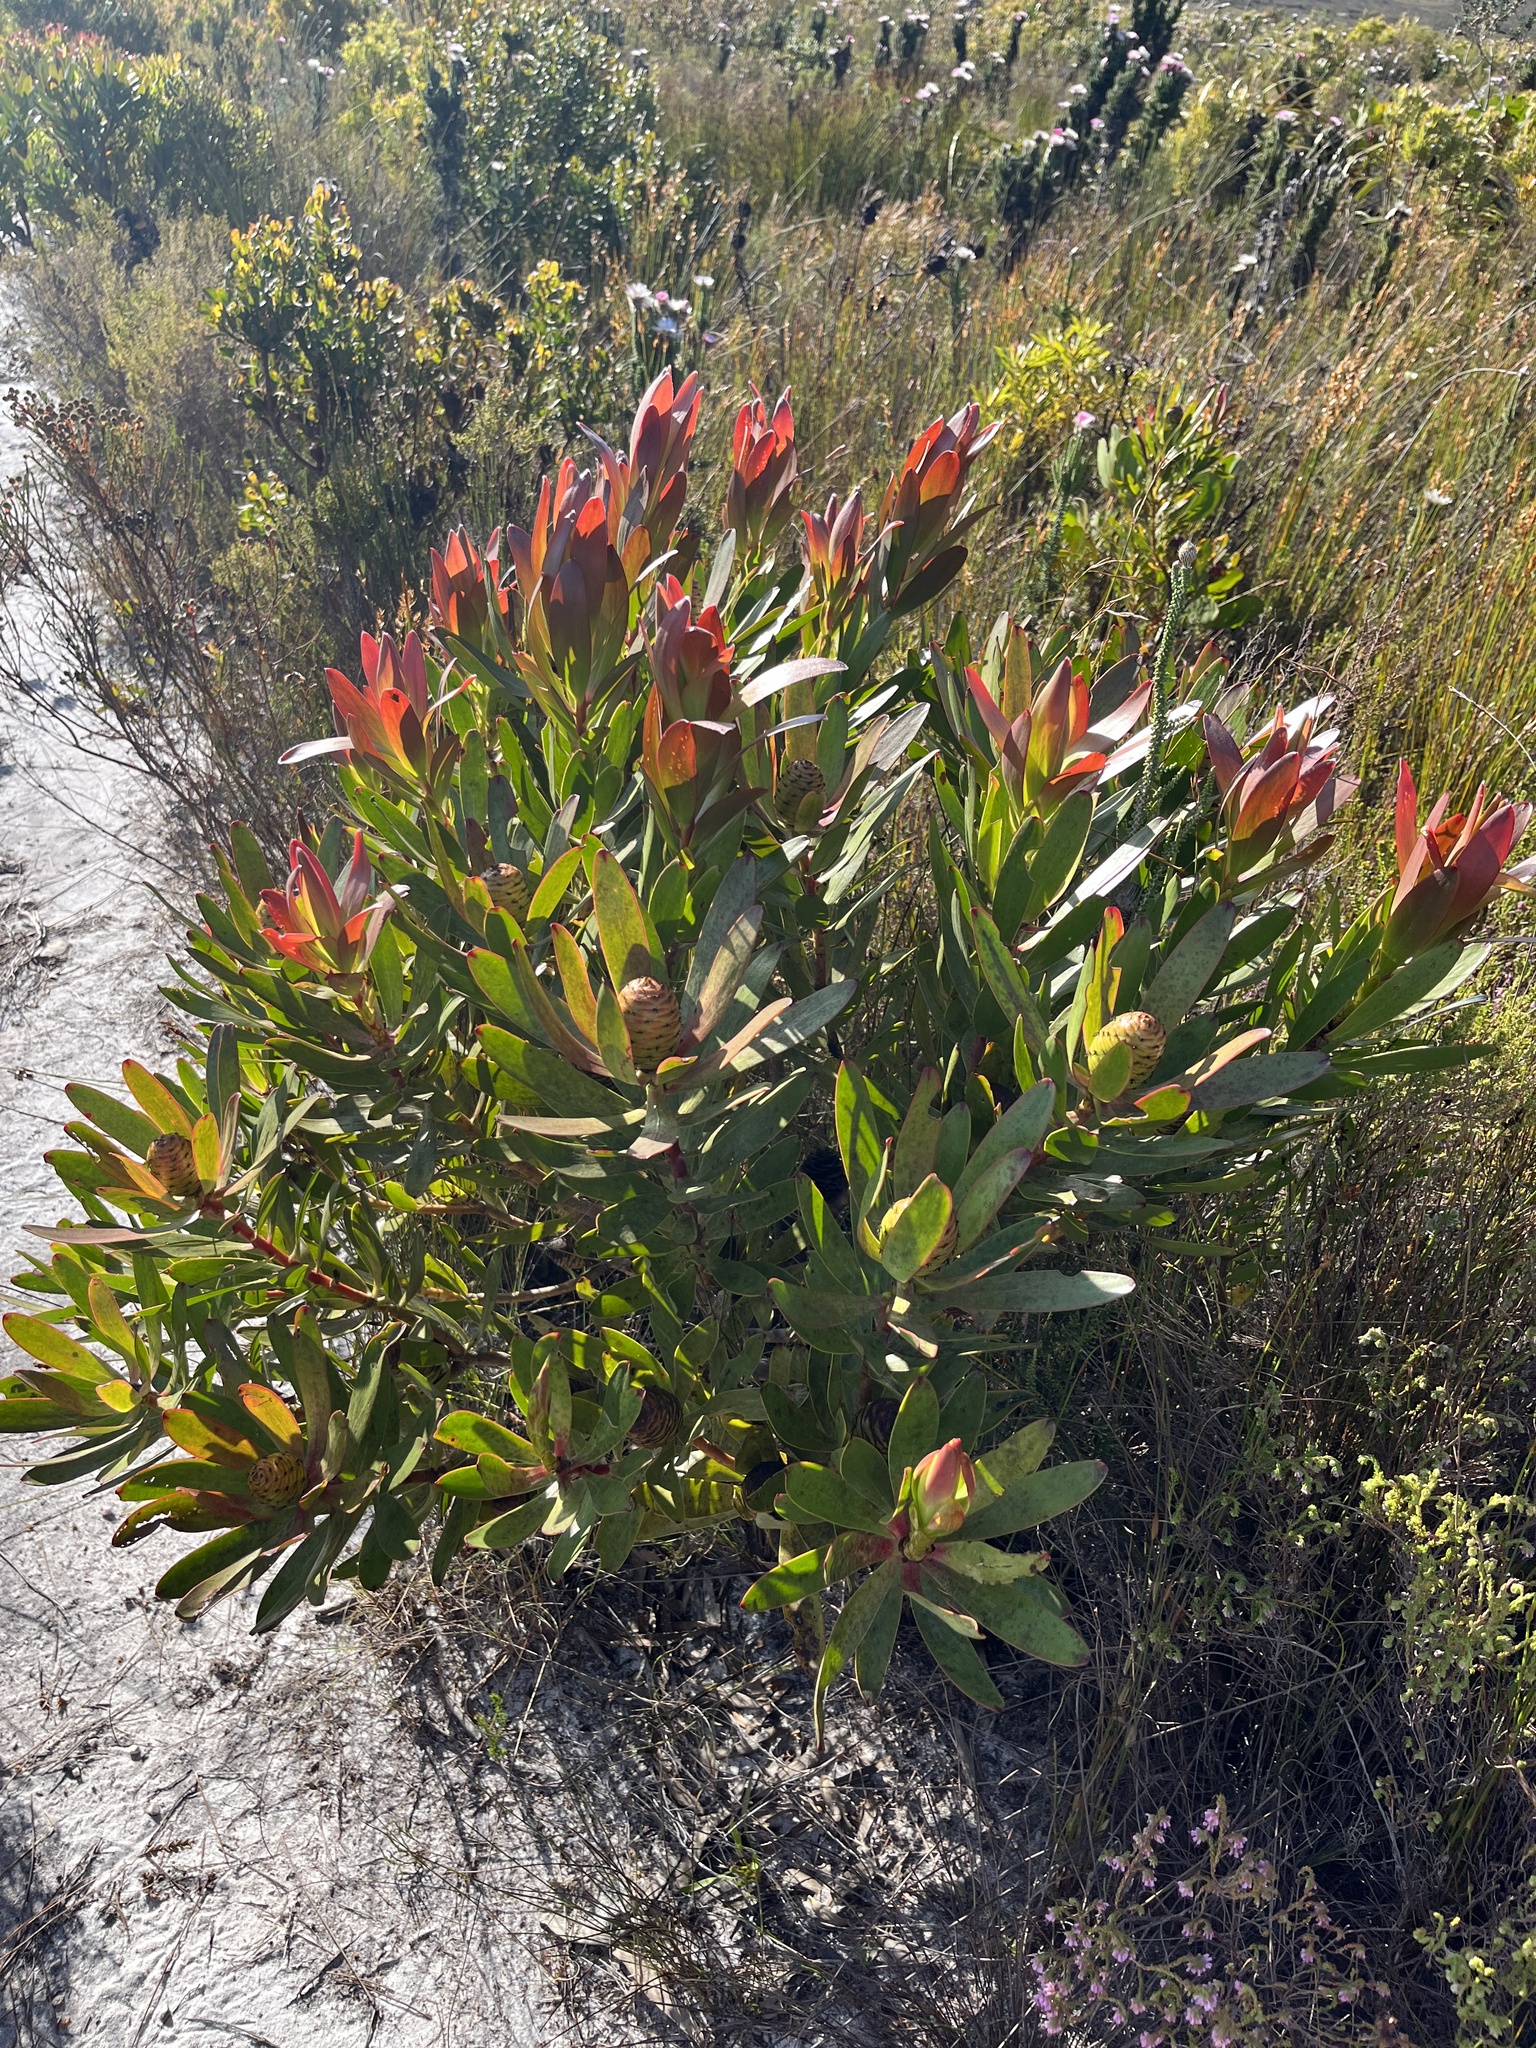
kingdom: Plantae
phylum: Tracheophyta
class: Magnoliopsida
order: Proteales
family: Proteaceae
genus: Leucadendron
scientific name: Leucadendron gandogeri
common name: Broad-leaf conebush
